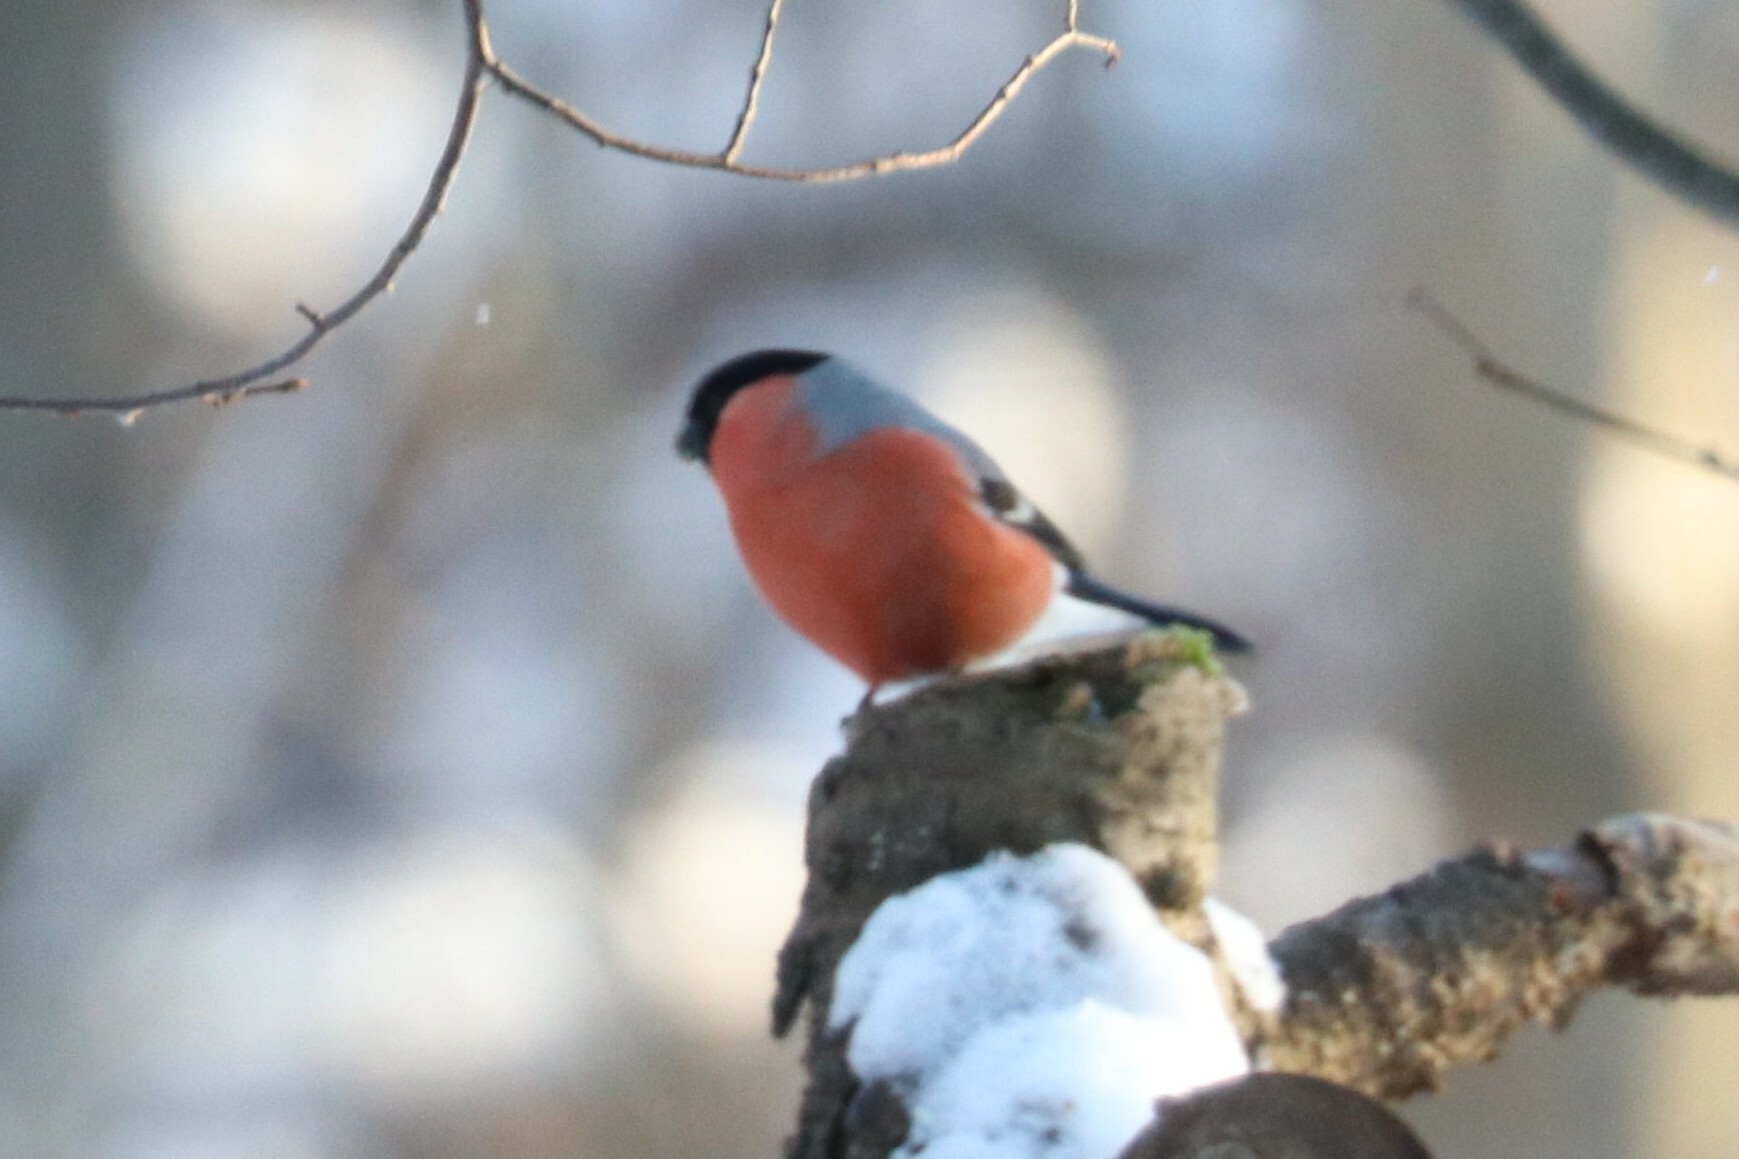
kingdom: Animalia
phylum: Chordata
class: Aves
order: Passeriformes
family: Fringillidae
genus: Pyrrhula
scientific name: Pyrrhula pyrrhula
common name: Eurasian bullfinch
